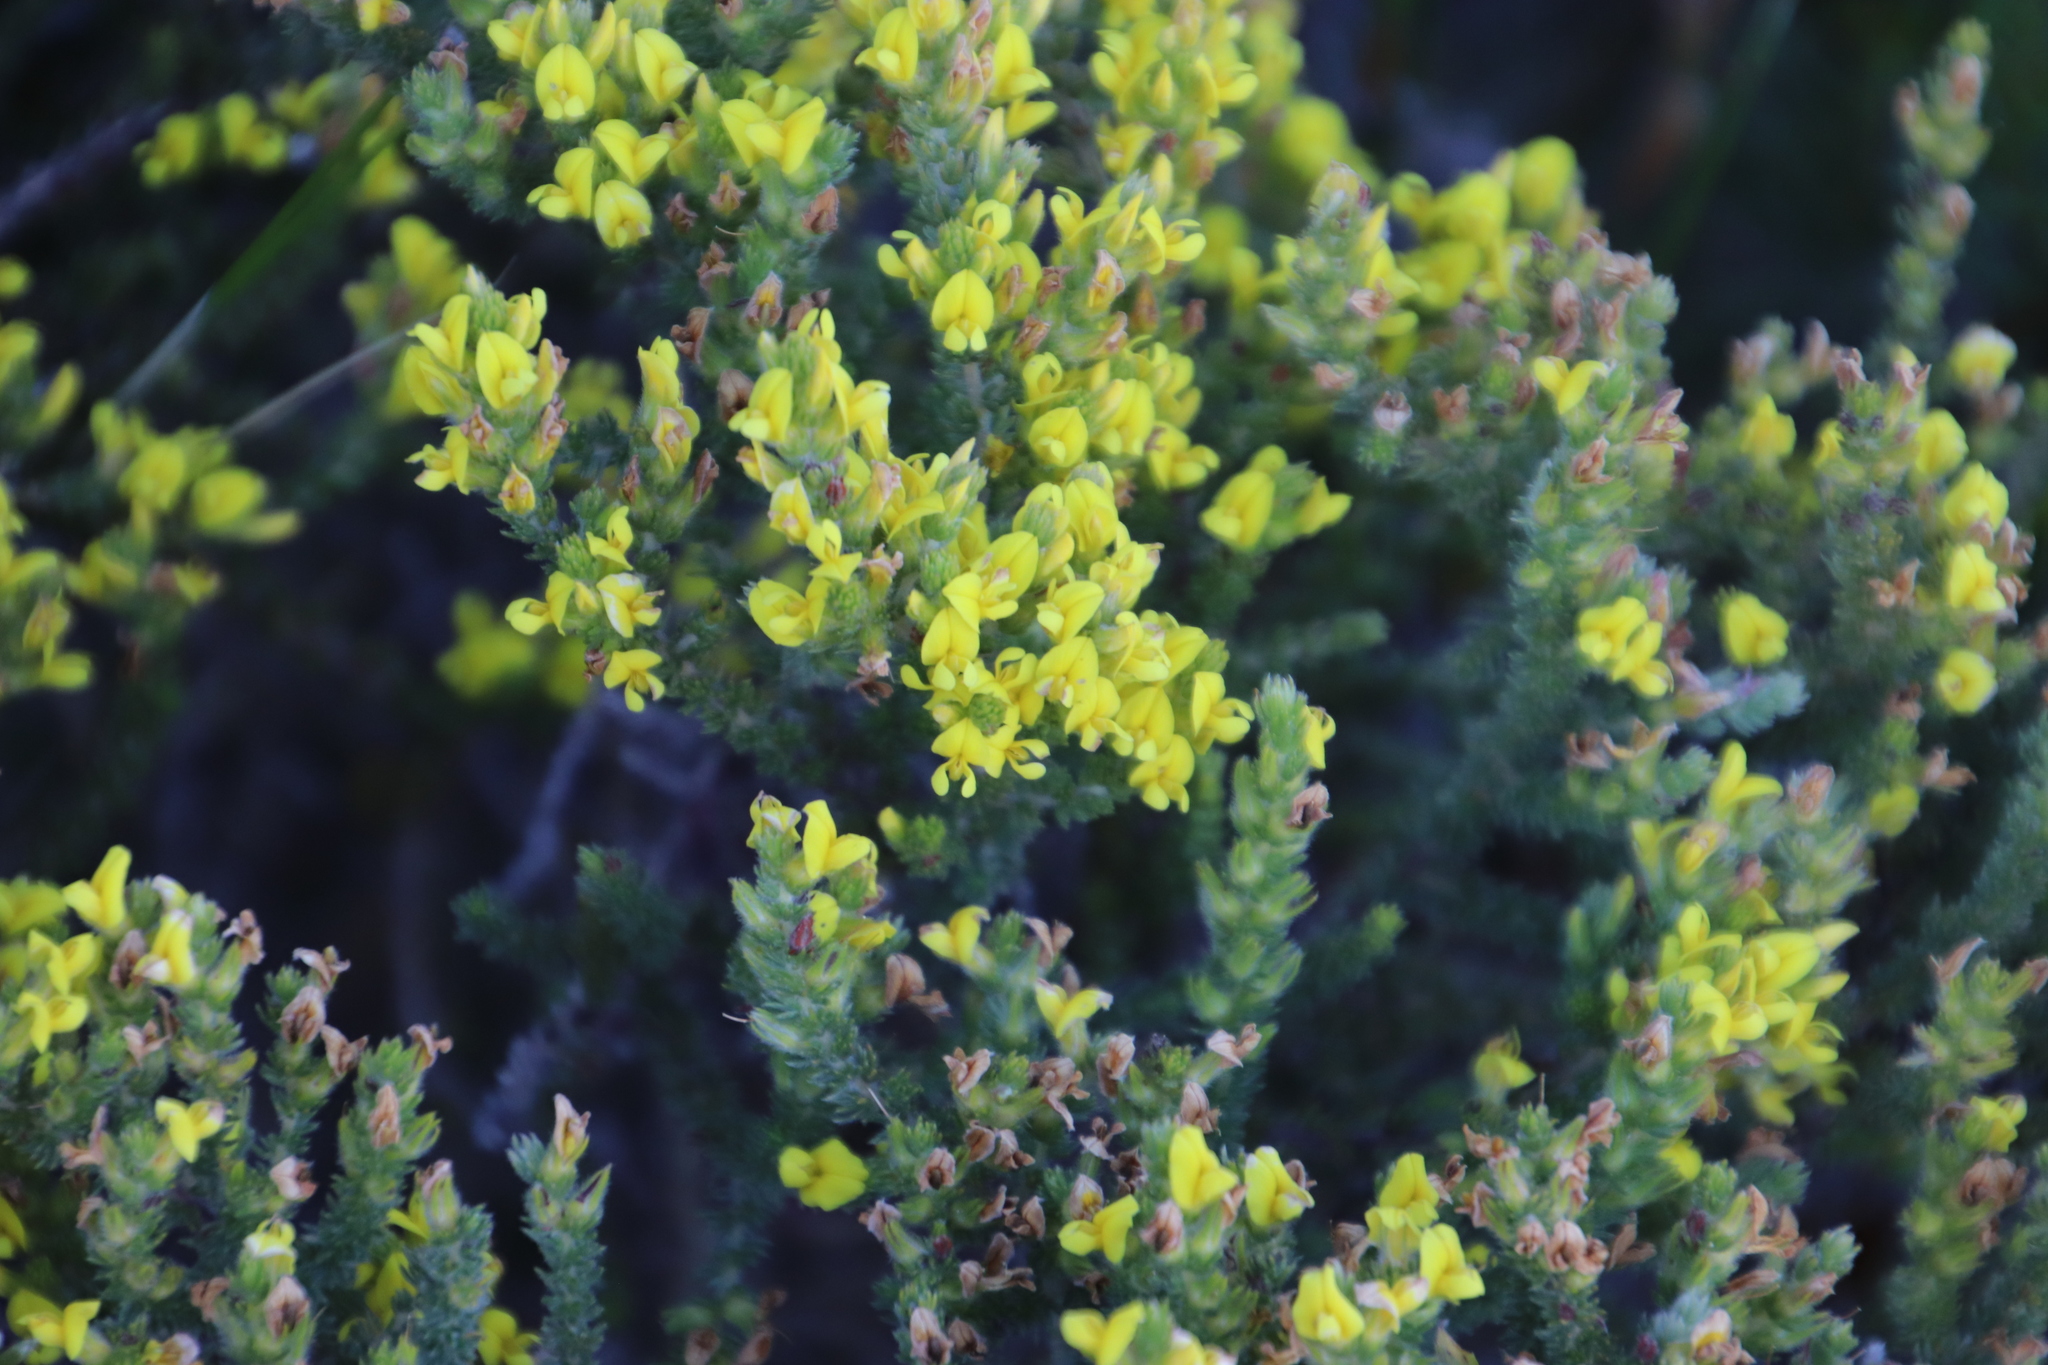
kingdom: Plantae
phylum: Tracheophyta
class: Magnoliopsida
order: Fabales
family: Fabaceae
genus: Aspalathus
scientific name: Aspalathus ericifolia
